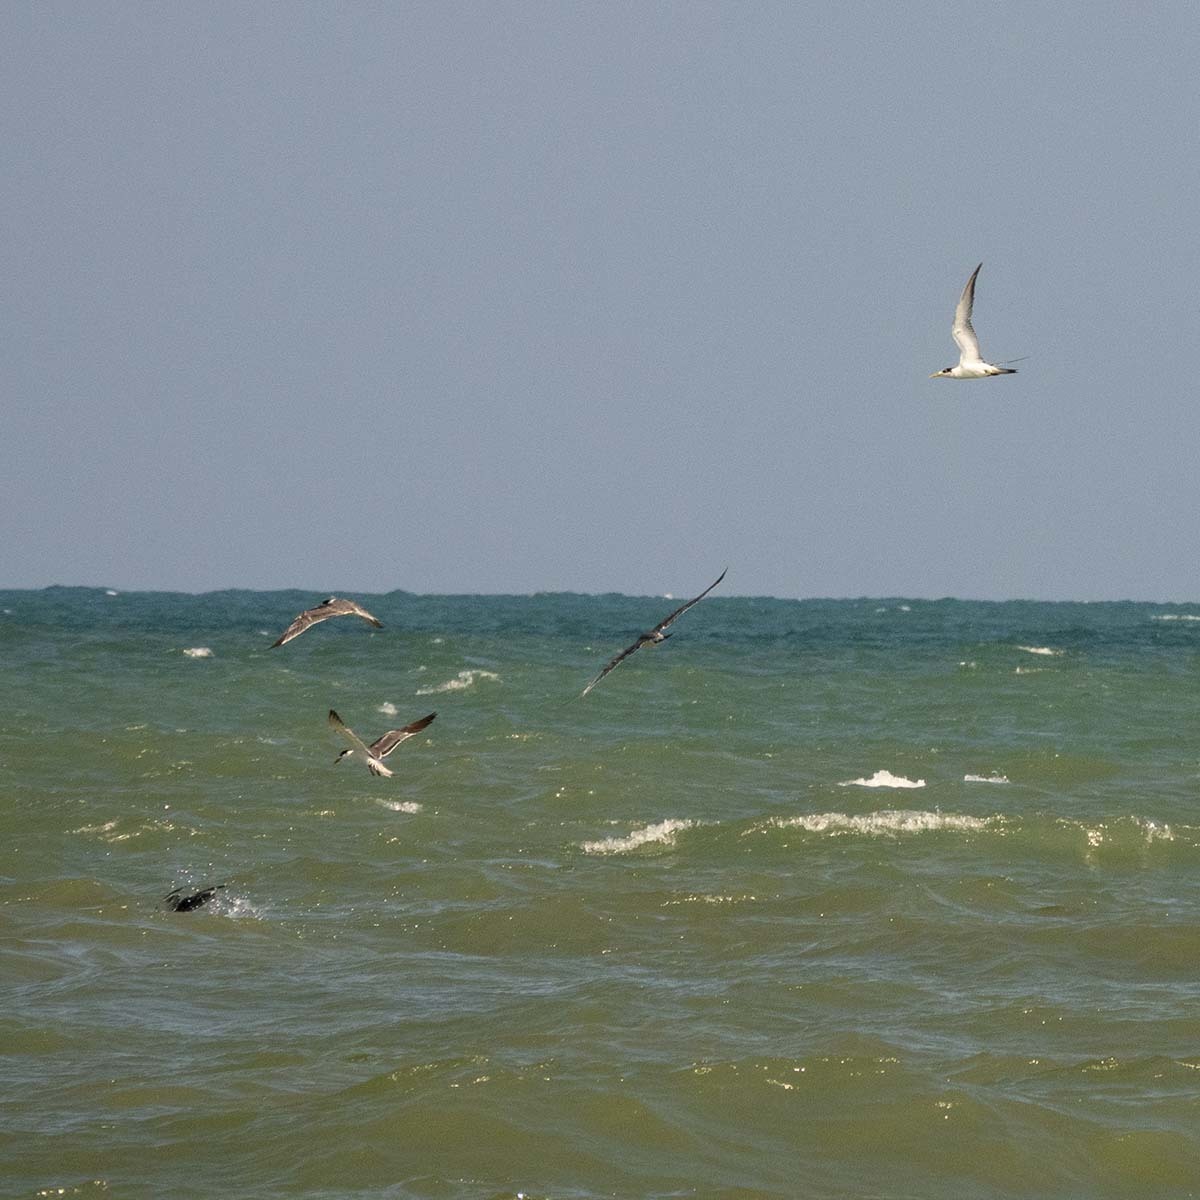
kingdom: Animalia
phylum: Chordata
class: Aves
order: Charadriiformes
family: Laridae
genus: Thalasseus
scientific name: Thalasseus bergii
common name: Greater crested tern
